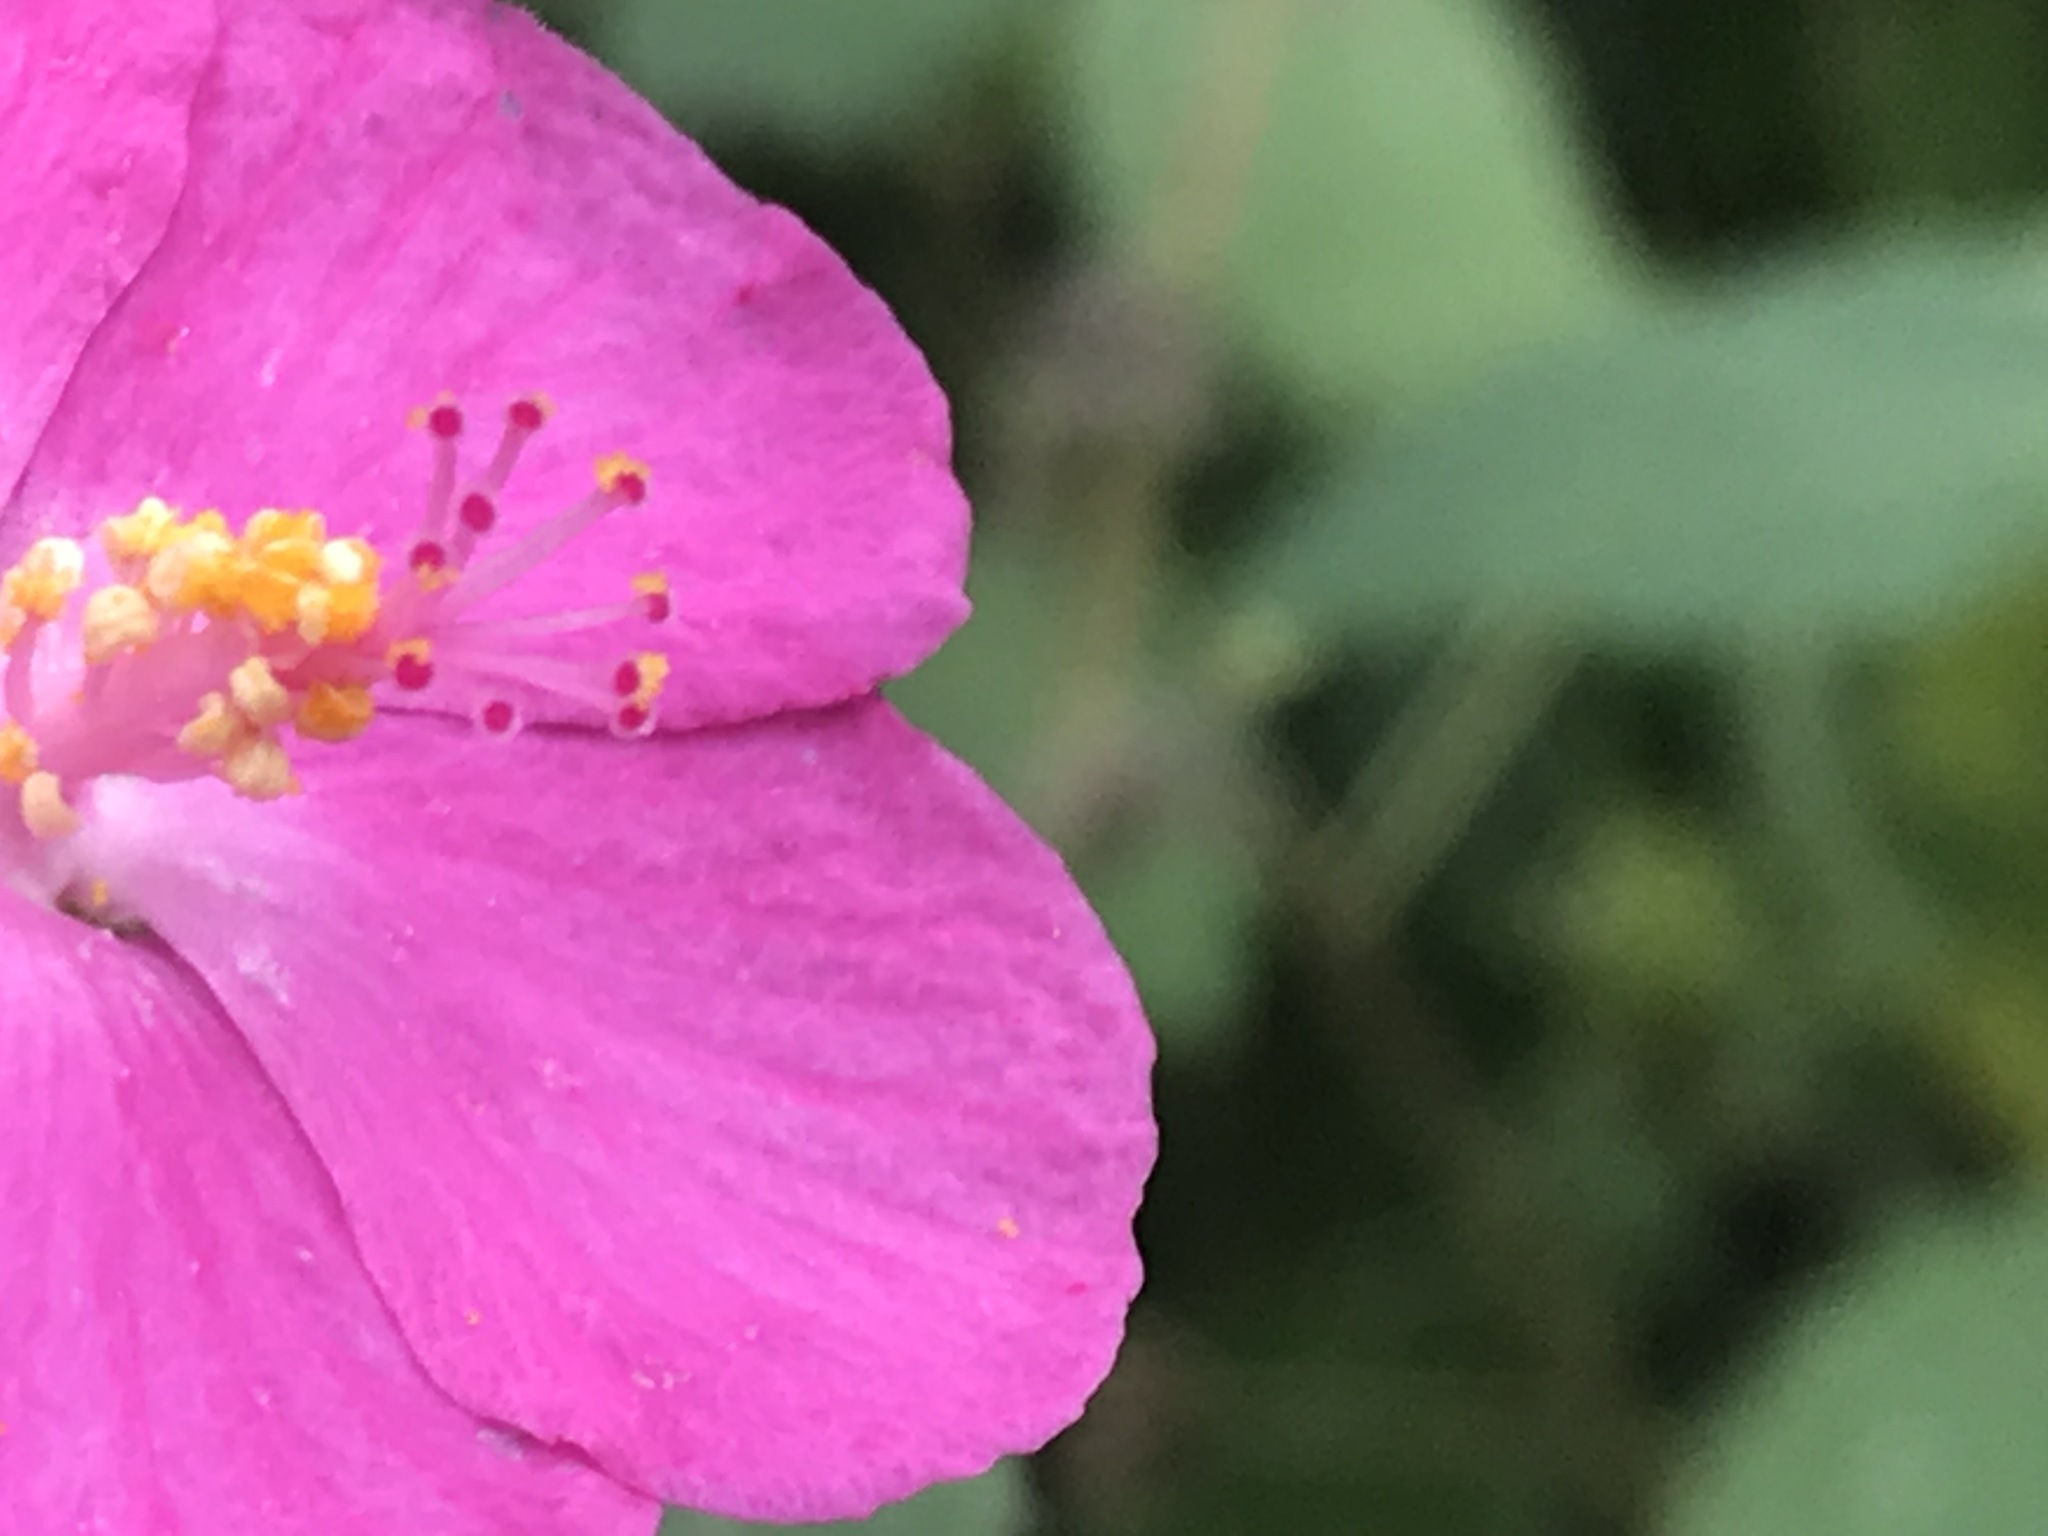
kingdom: Plantae
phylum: Tracheophyta
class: Magnoliopsida
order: Malvales
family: Malvaceae
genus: Pavonia
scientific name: Pavonia lasiopetala
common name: Texas swamp-mallow
